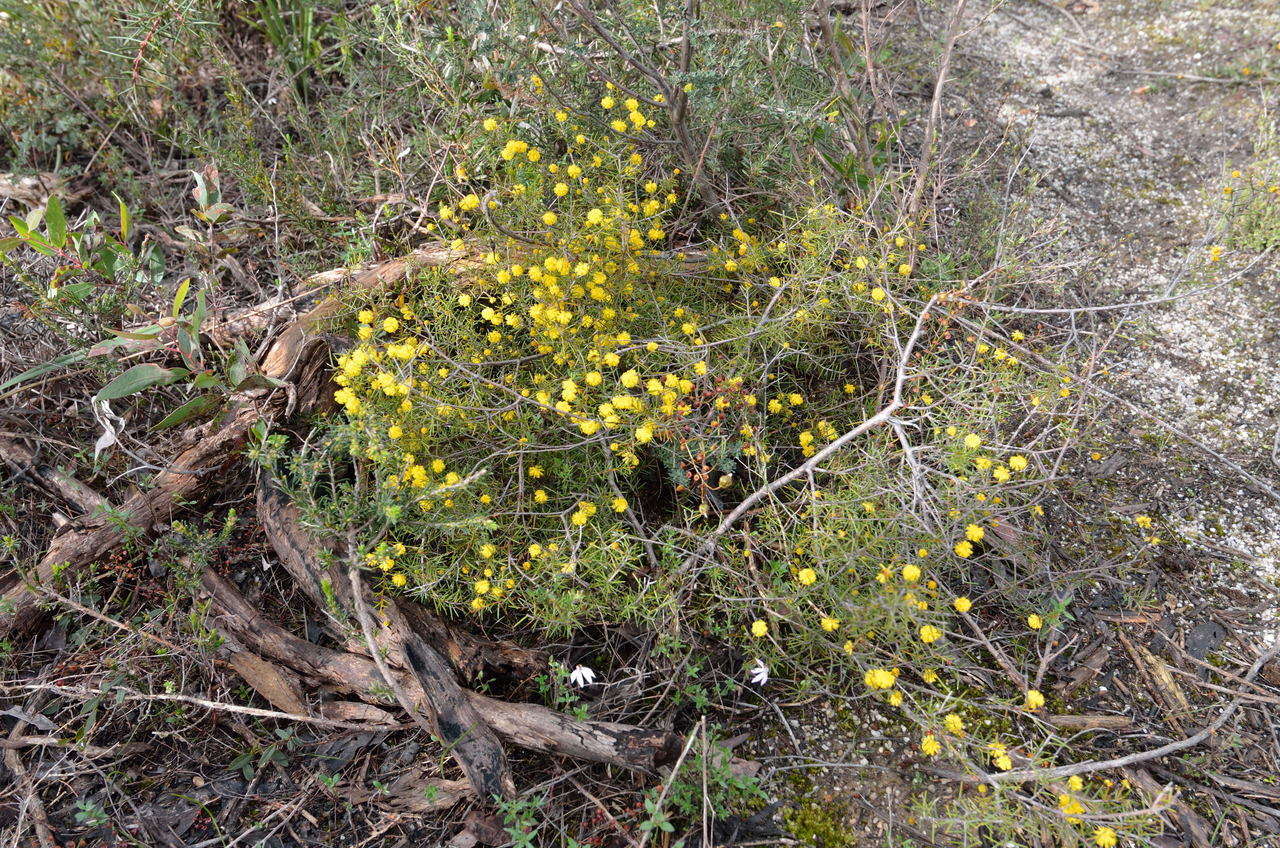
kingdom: Plantae
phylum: Tracheophyta
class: Magnoliopsida
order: Fabales
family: Fabaceae
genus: Acacia
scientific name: Acacia brownii
